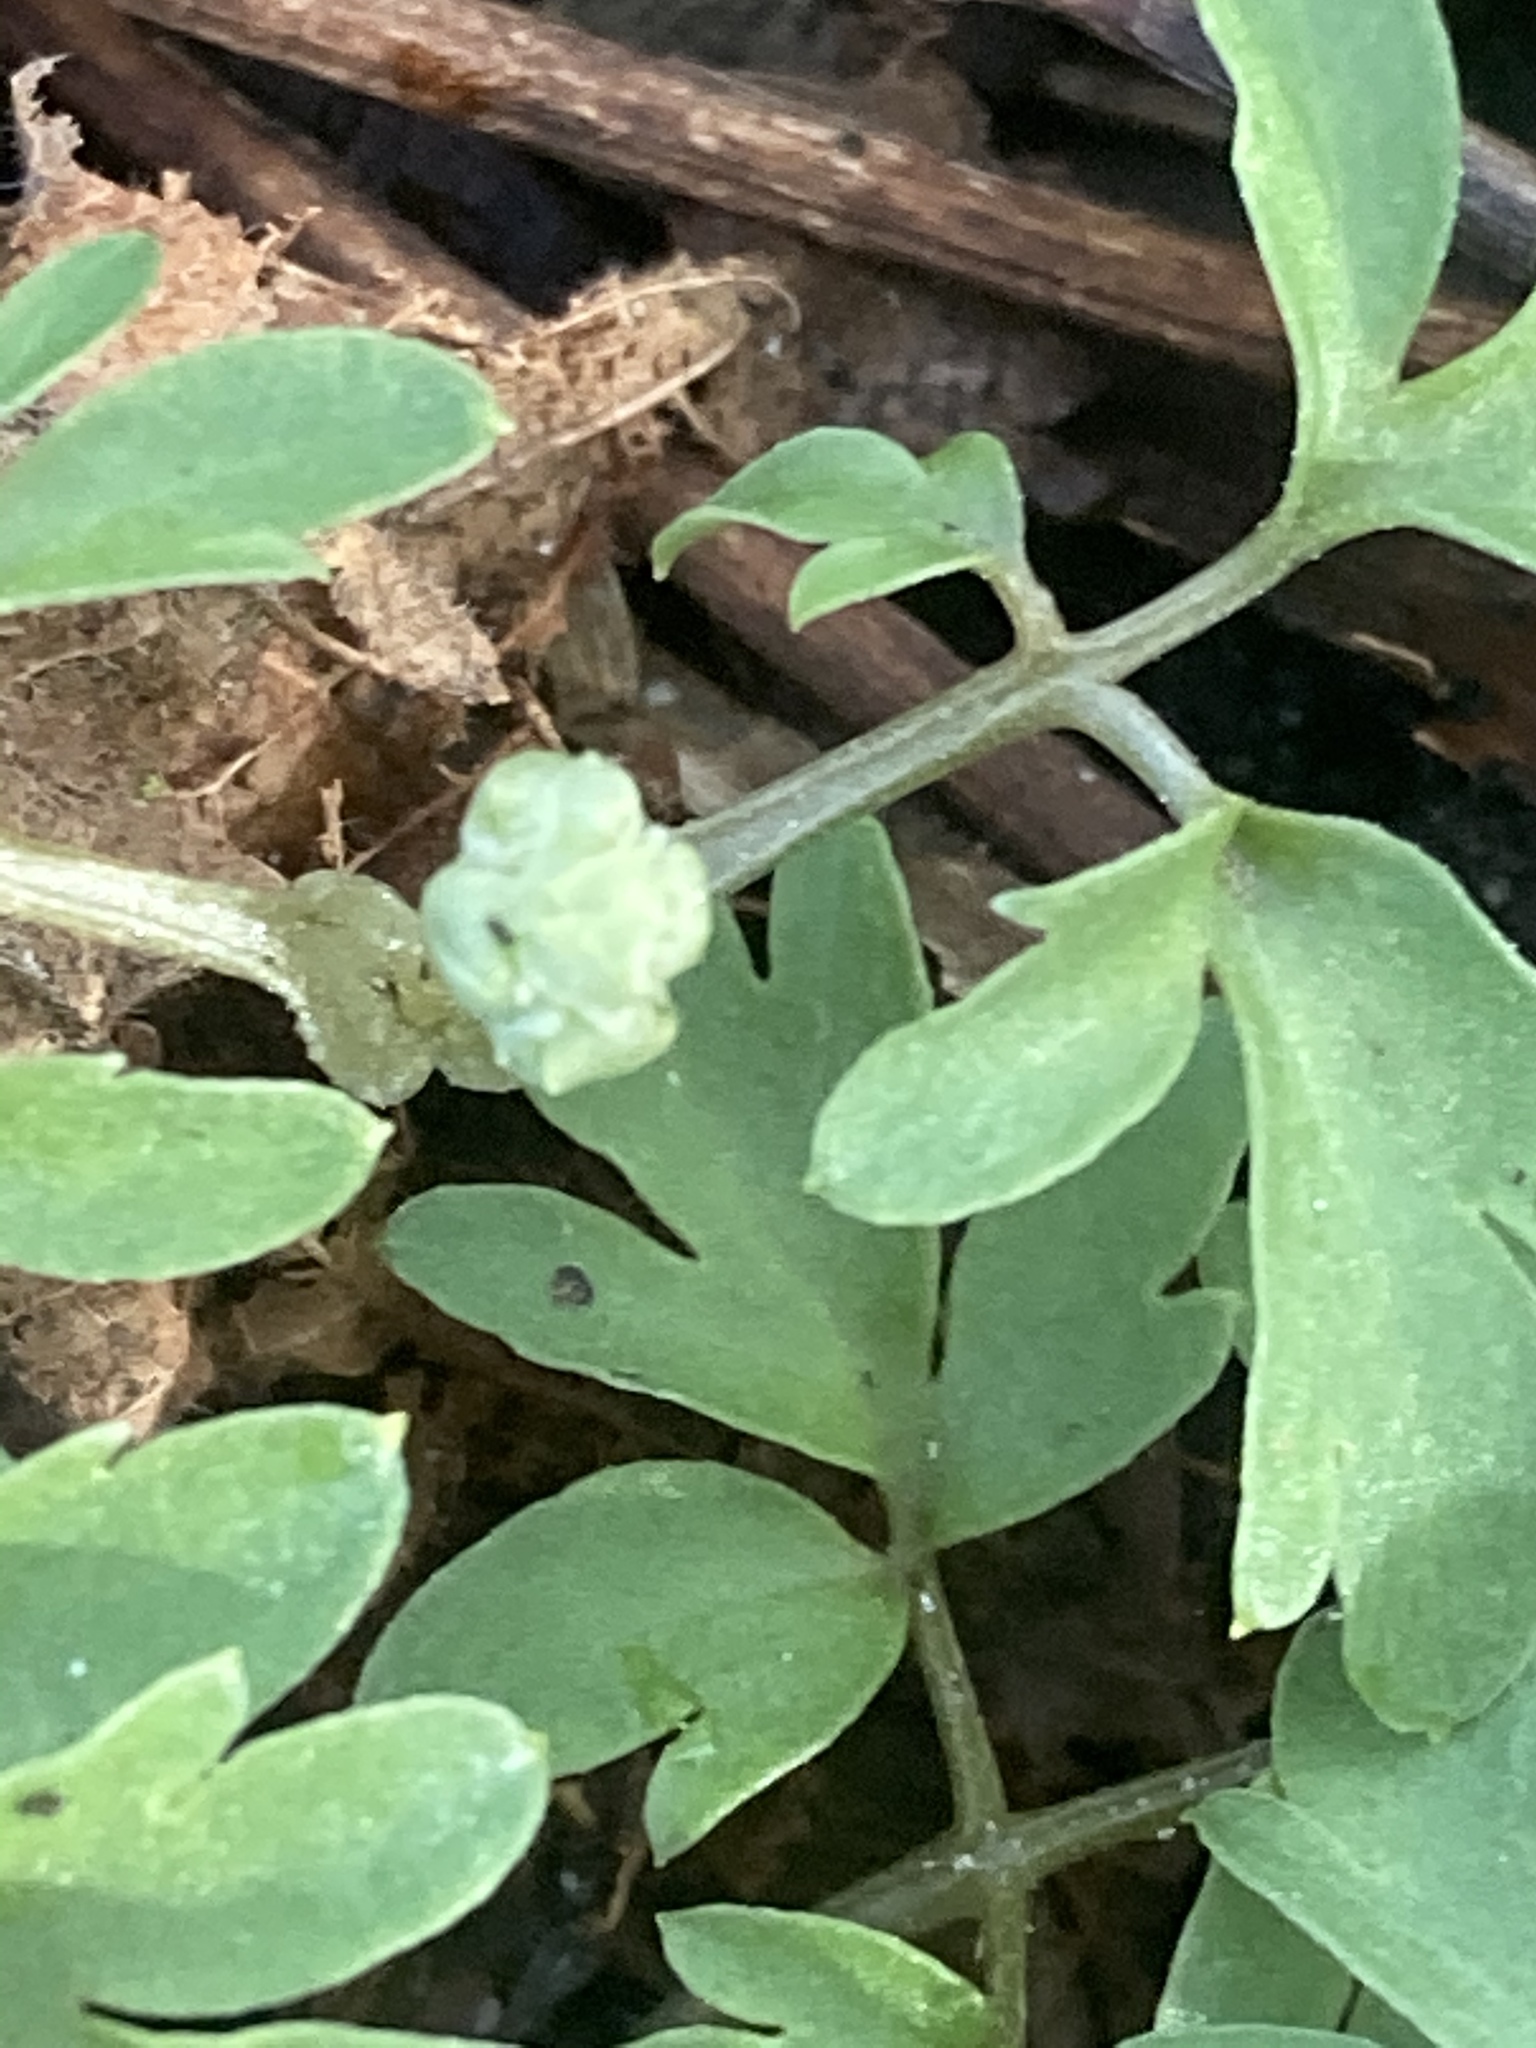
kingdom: Plantae
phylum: Tracheophyta
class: Magnoliopsida
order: Dipsacales
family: Viburnaceae
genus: Adoxa
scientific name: Adoxa moschatellina
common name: Moschatel
